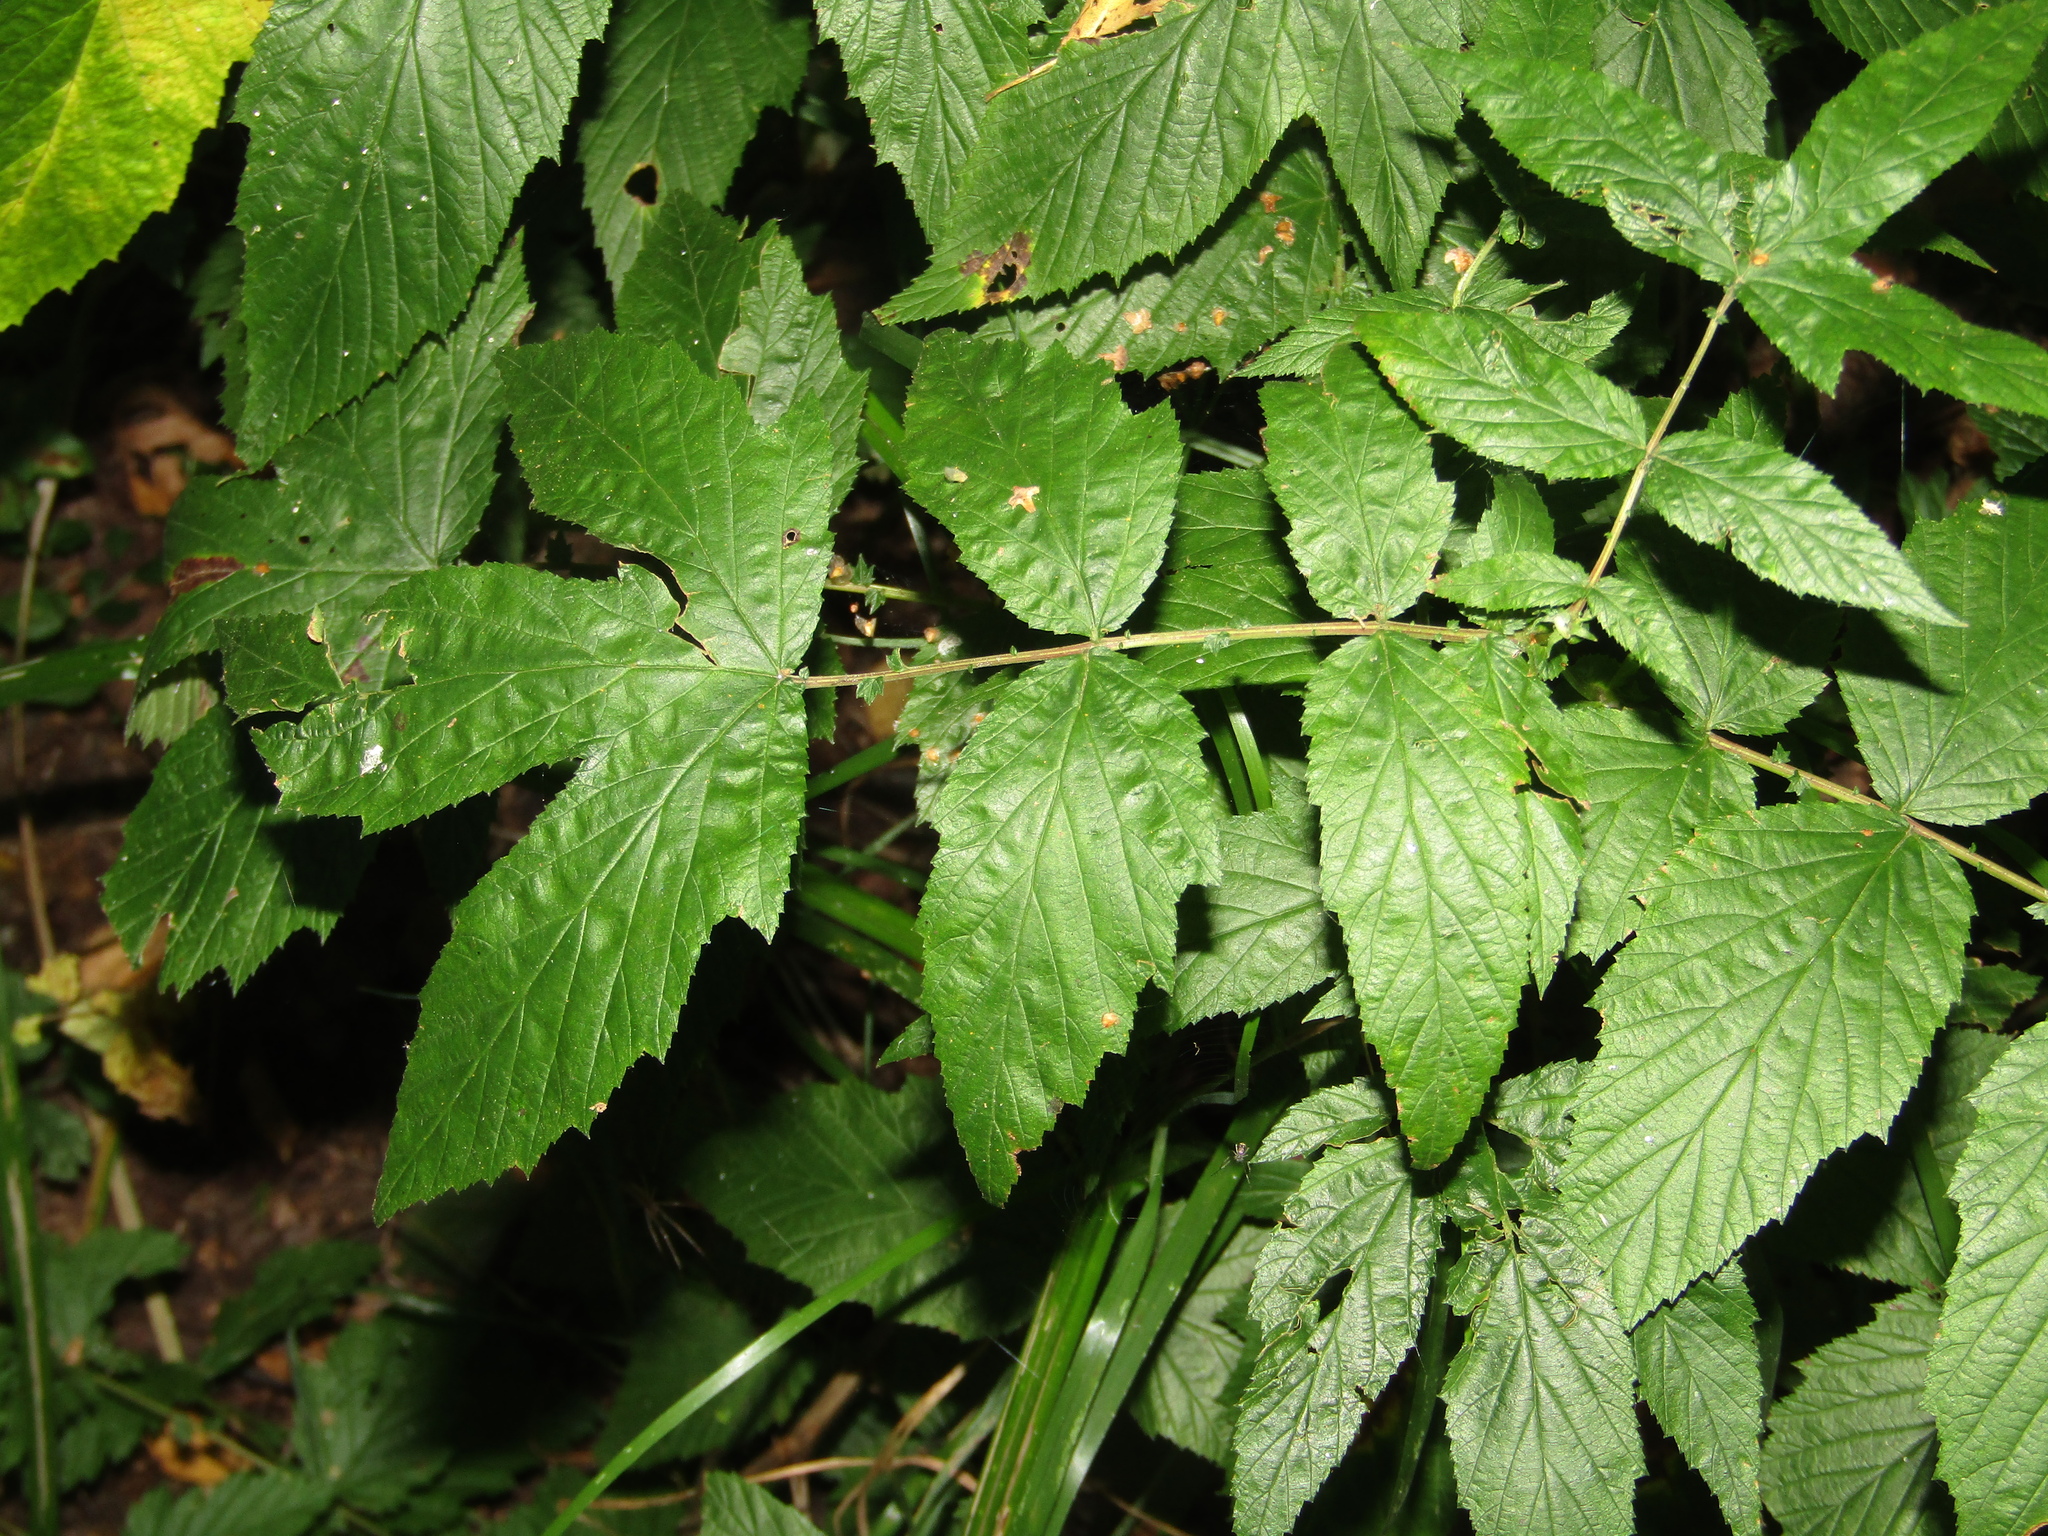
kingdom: Plantae
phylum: Tracheophyta
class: Magnoliopsida
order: Rosales
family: Rosaceae
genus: Filipendula
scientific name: Filipendula ulmaria
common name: Meadowsweet
